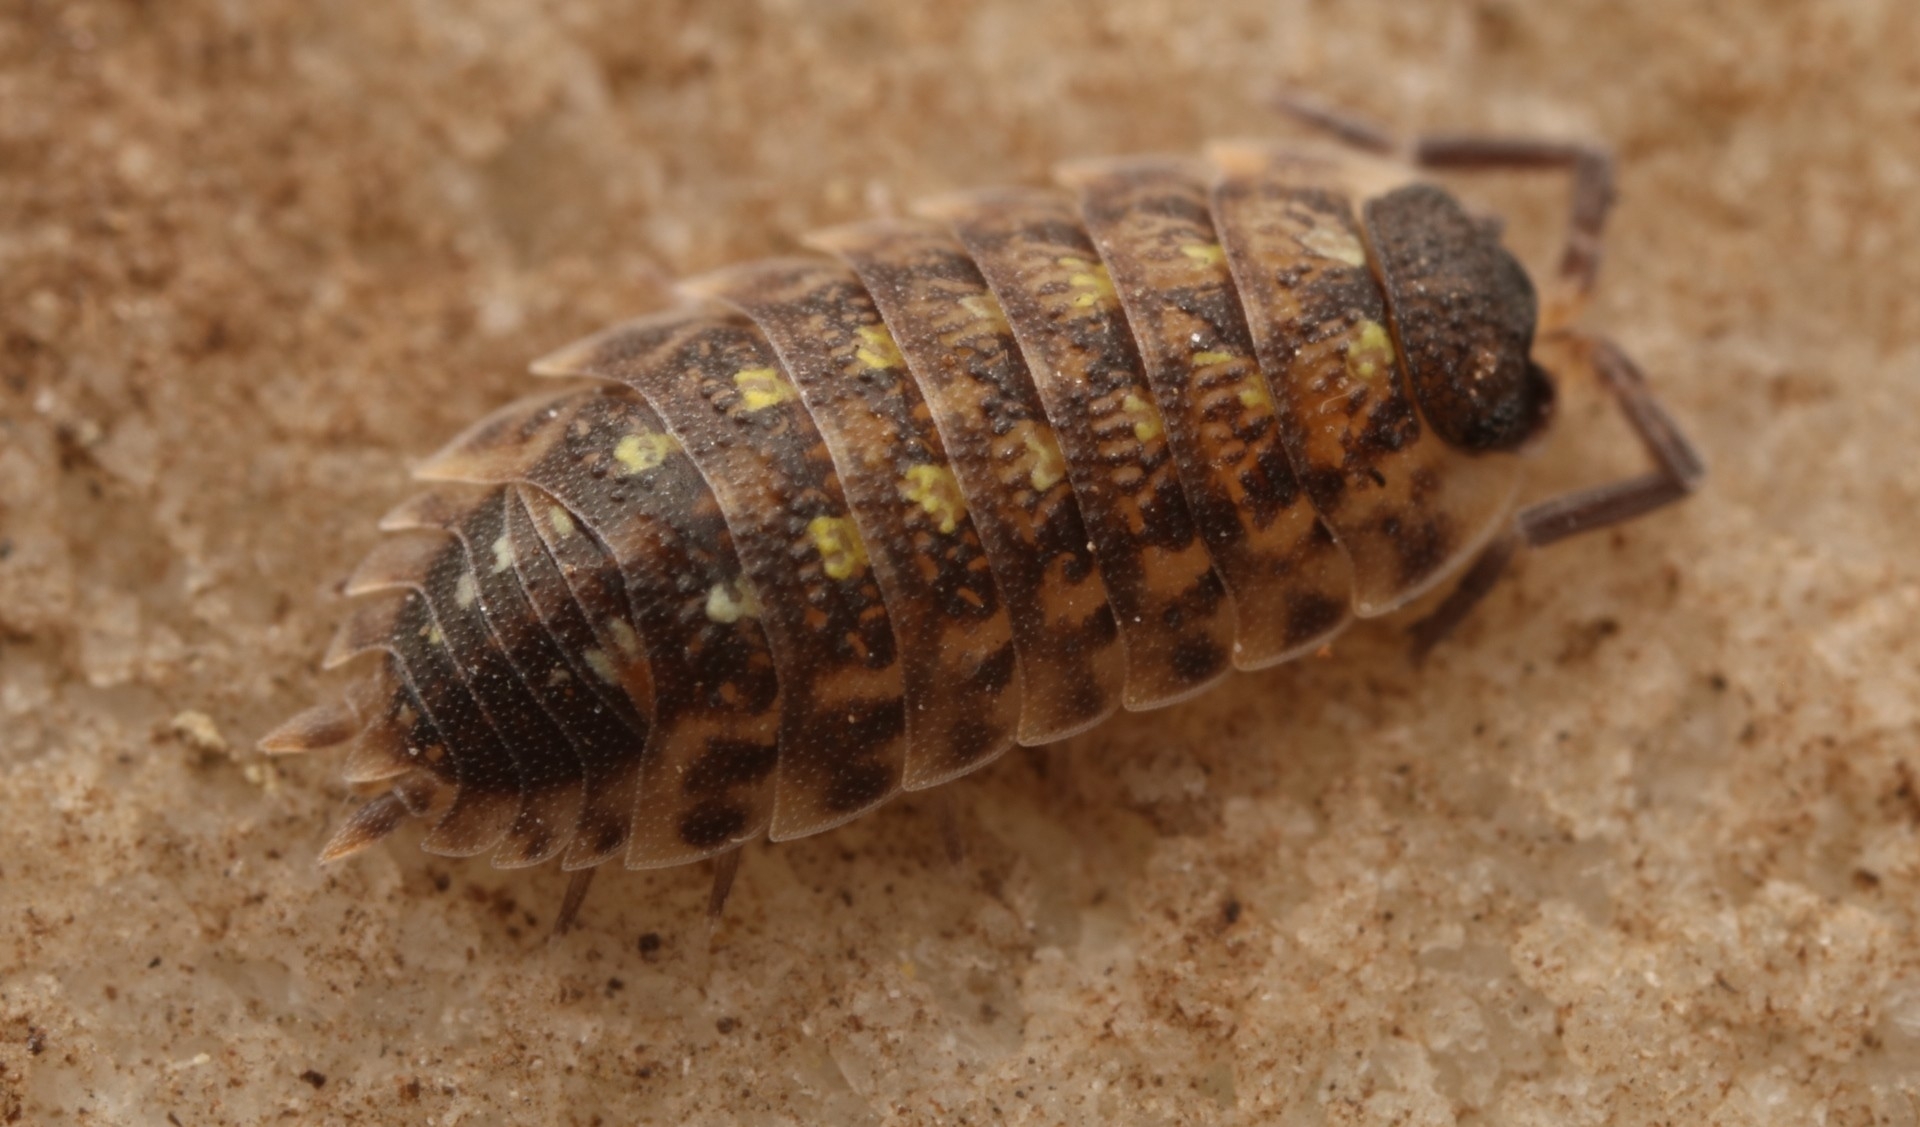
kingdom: Animalia
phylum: Arthropoda
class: Malacostraca
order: Isopoda
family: Porcellionidae
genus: Porcellio
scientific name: Porcellio spinicornis
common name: Painted woodlouse
